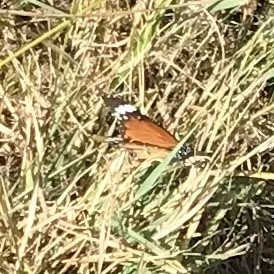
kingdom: Animalia
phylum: Arthropoda
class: Insecta
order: Lepidoptera
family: Nymphalidae
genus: Danaus
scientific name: Danaus chrysippus
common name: Plain tiger
